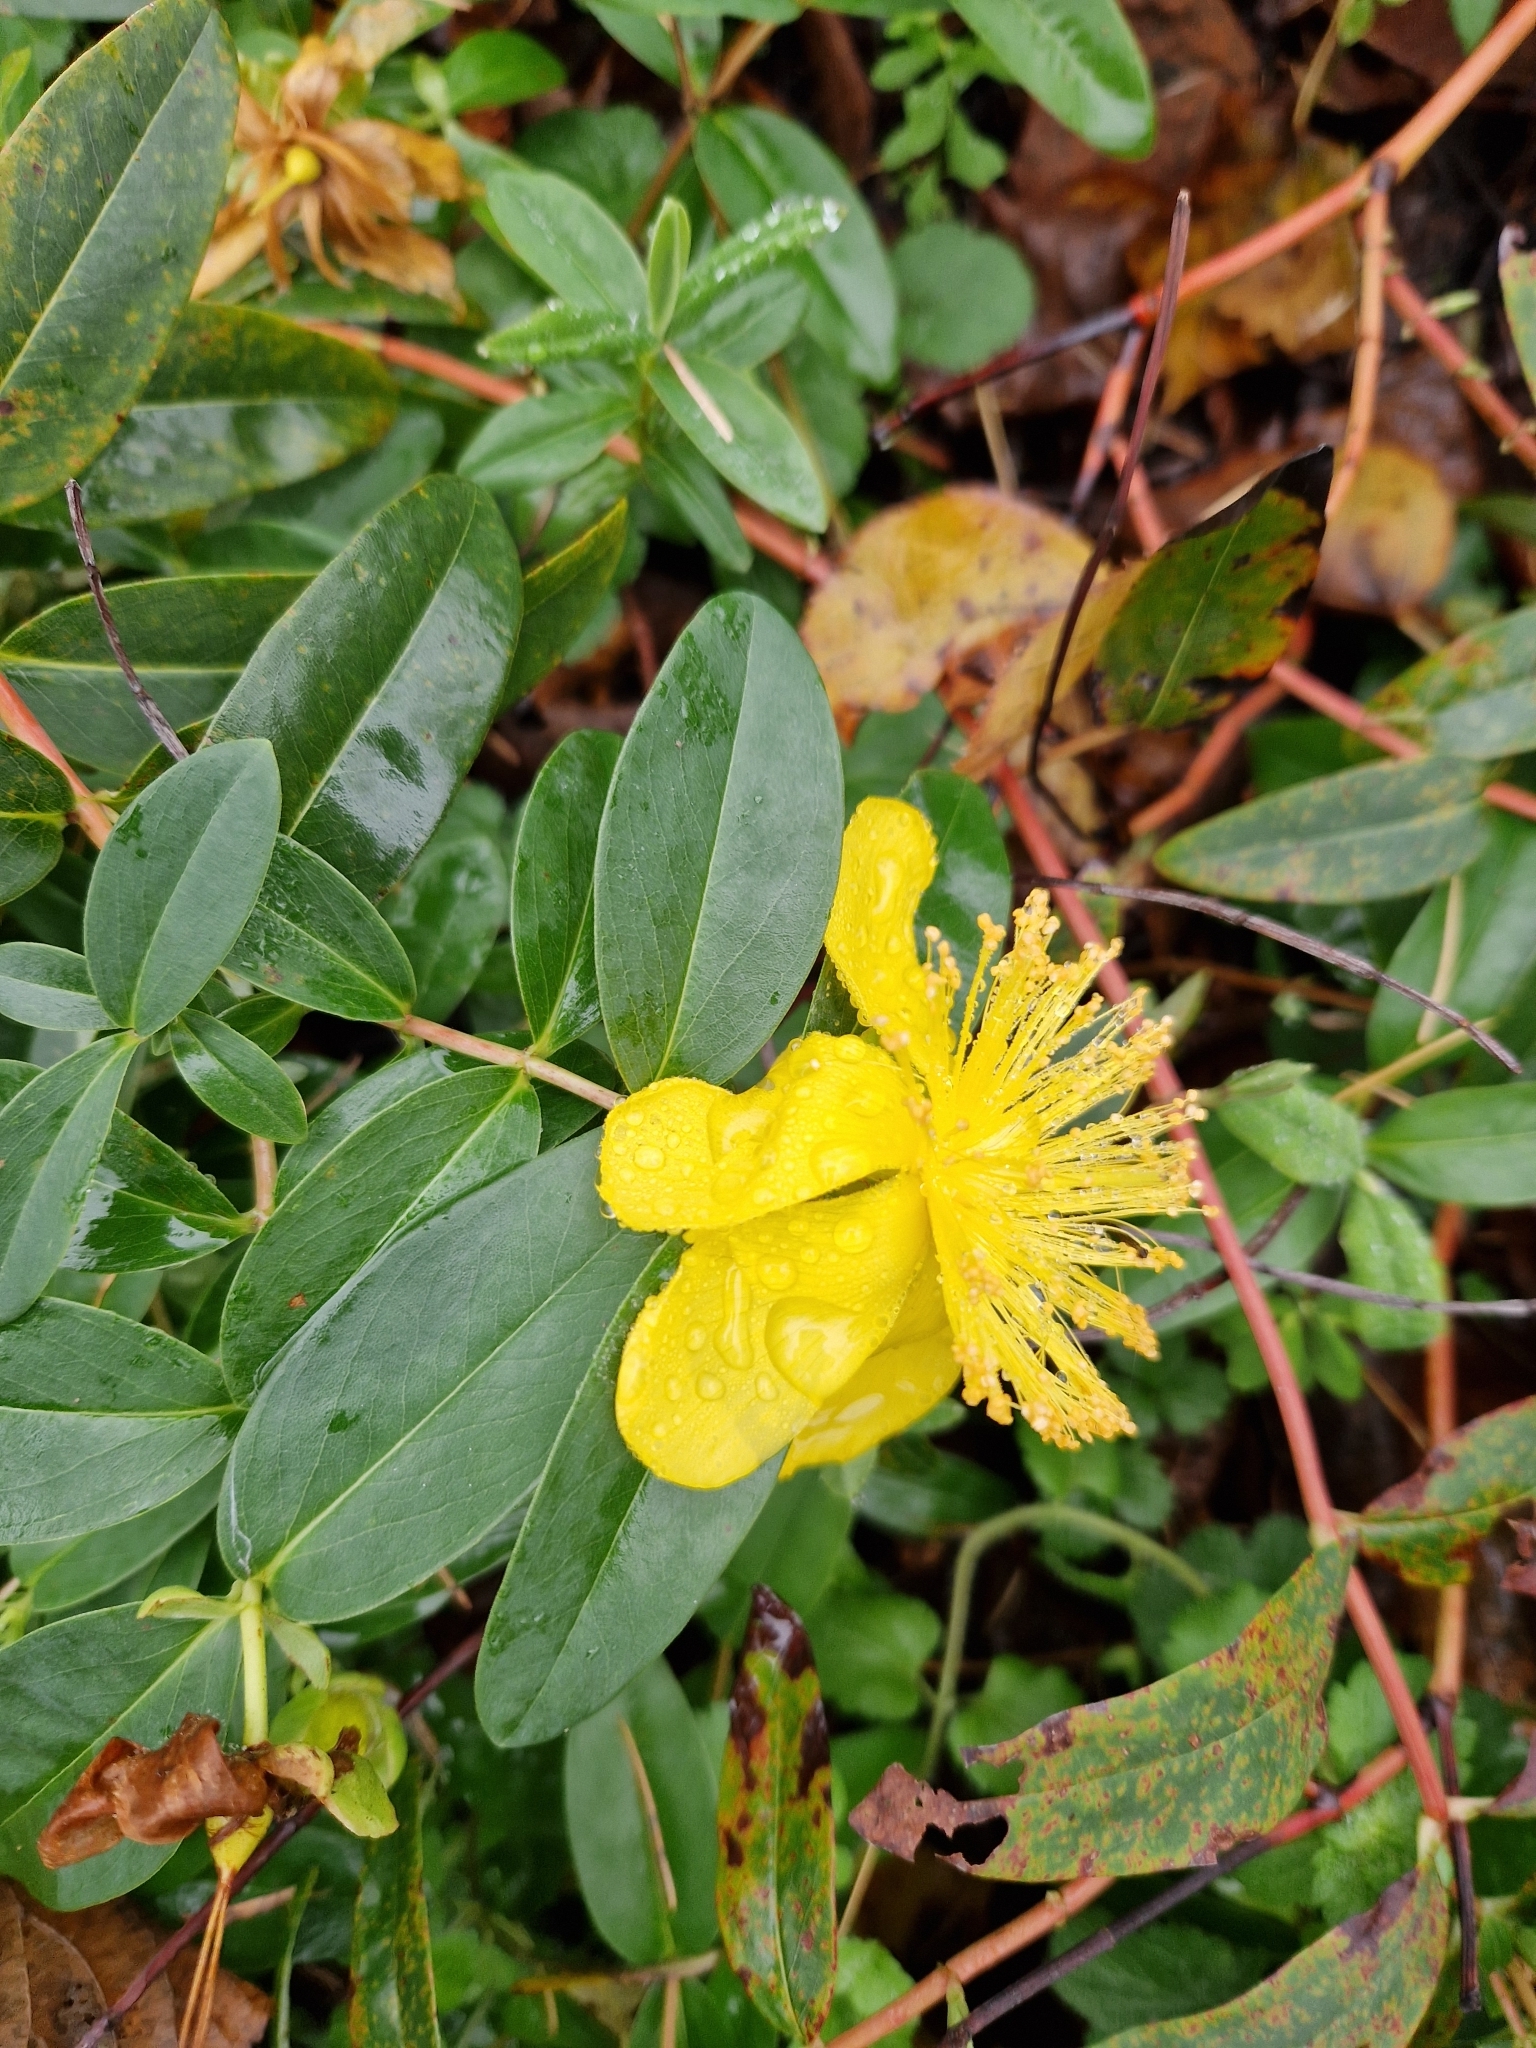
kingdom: Plantae
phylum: Tracheophyta
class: Magnoliopsida
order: Malpighiales
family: Hypericaceae
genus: Hypericum
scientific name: Hypericum calycinum
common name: Rose-of-sharon
